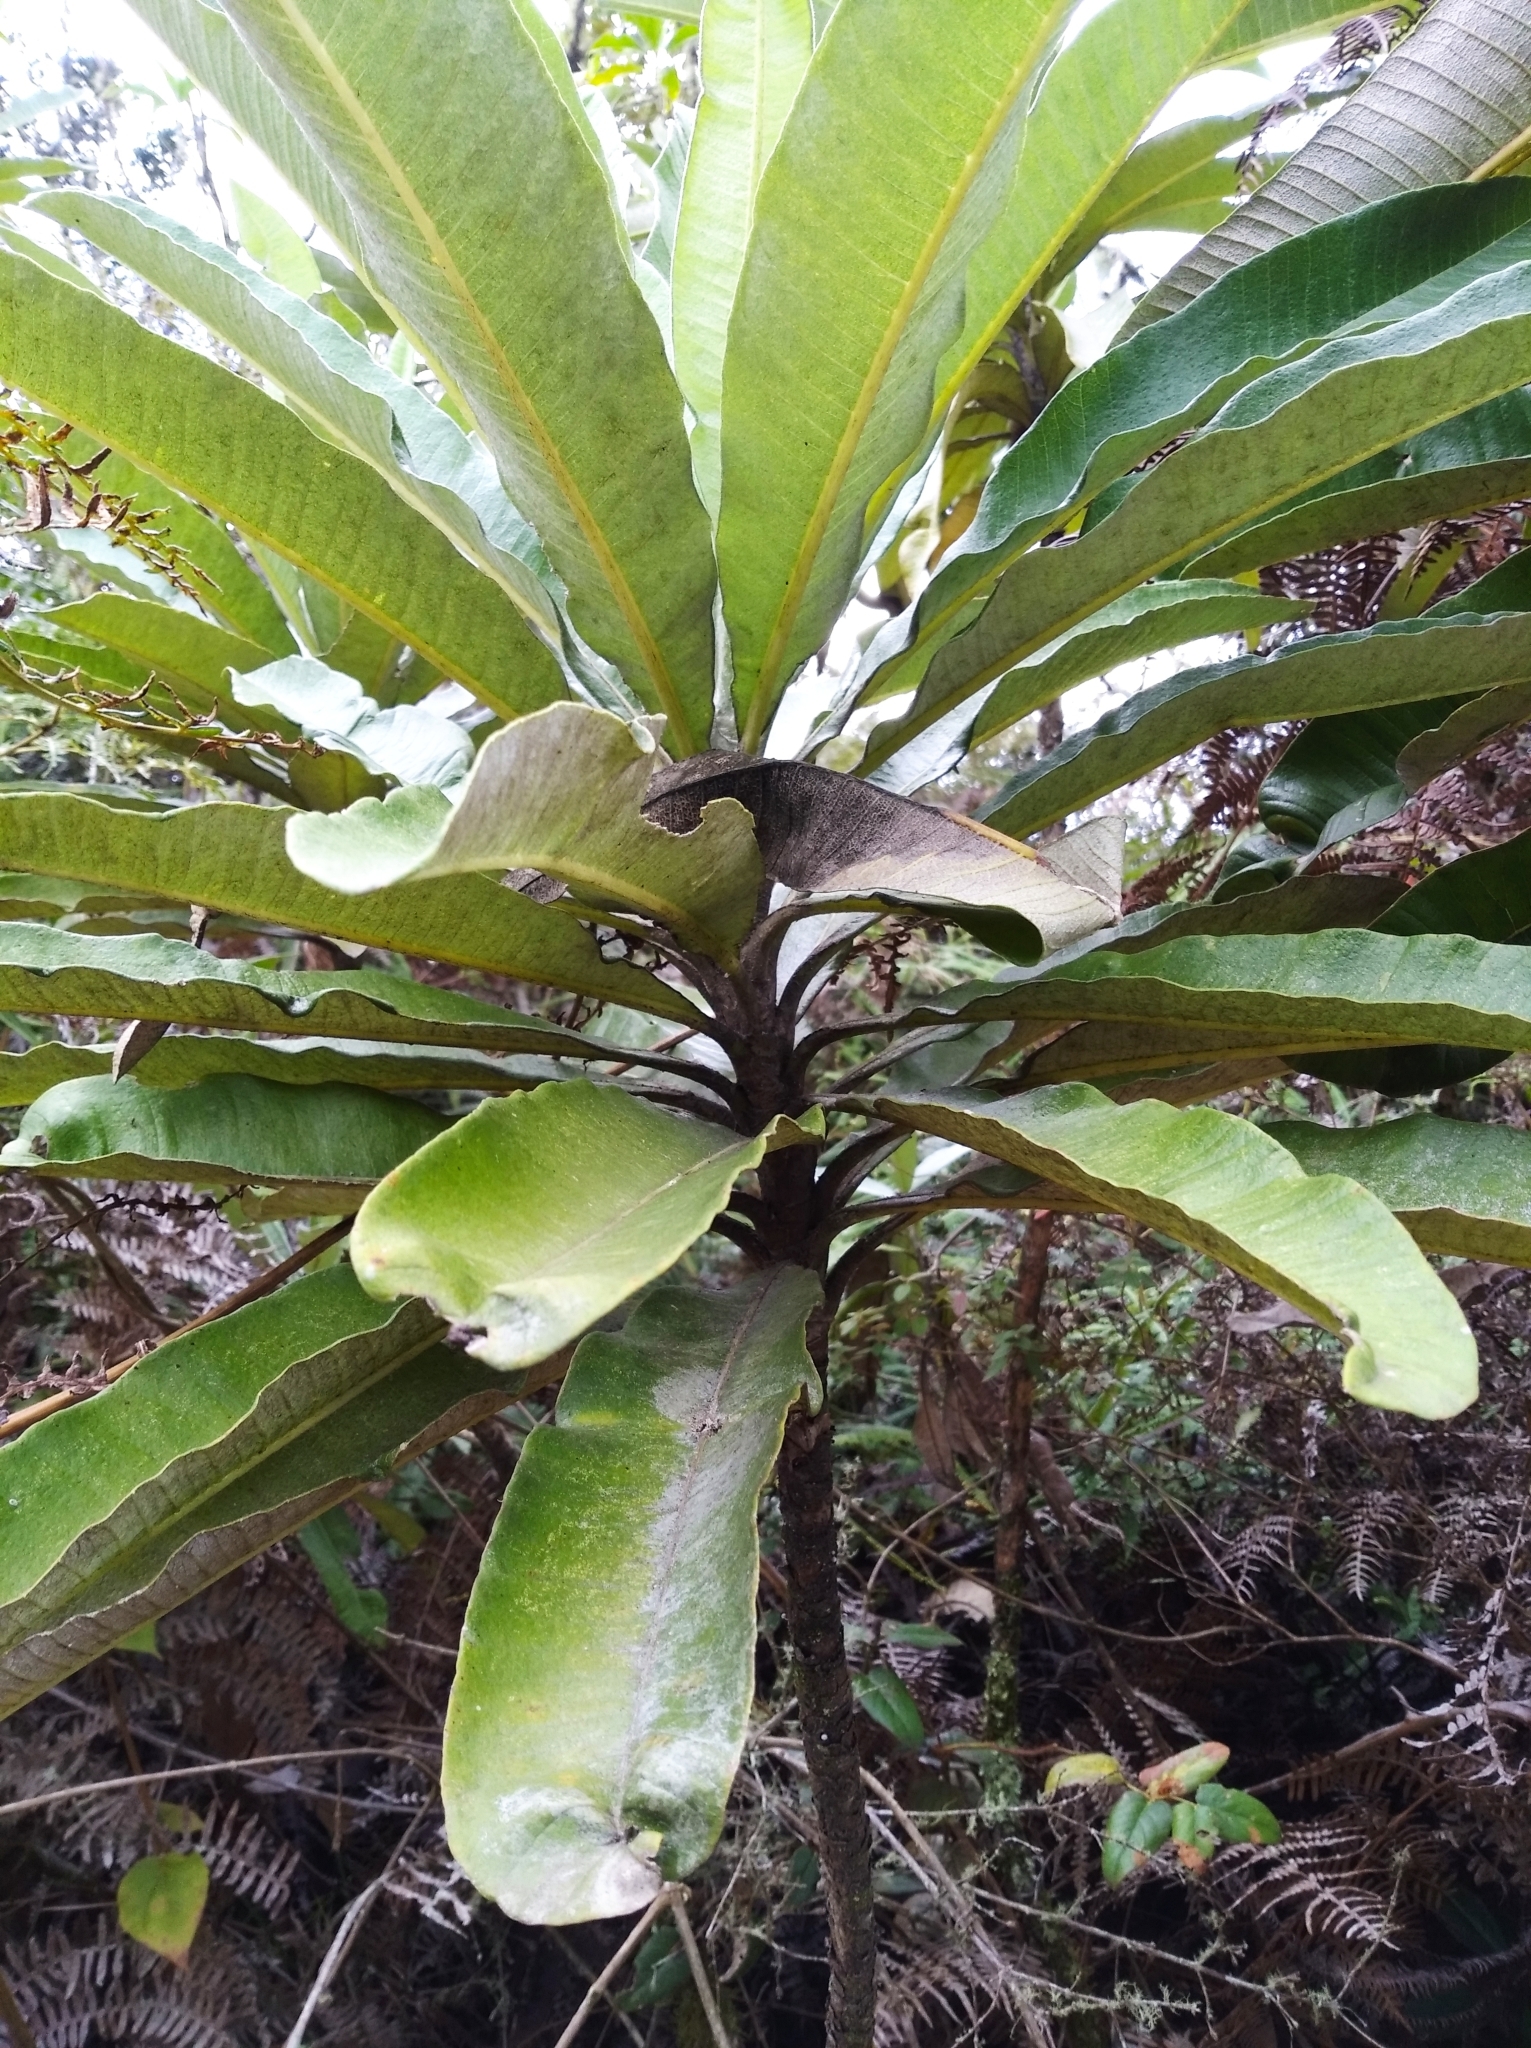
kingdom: Plantae
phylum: Tracheophyta
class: Magnoliopsida
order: Asterales
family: Asteraceae
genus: Espeletia
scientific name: Espeletia trujillensis
